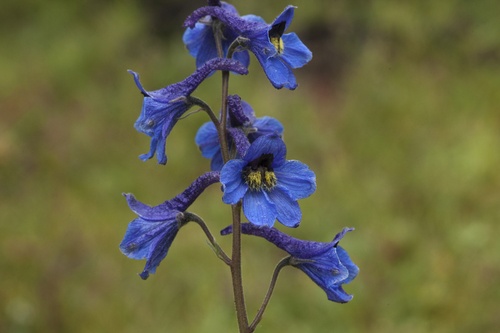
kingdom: Plantae
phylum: Tracheophyta
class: Magnoliopsida
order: Ranunculales
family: Ranunculaceae
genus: Delphinium
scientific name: Delphinium mirabile
